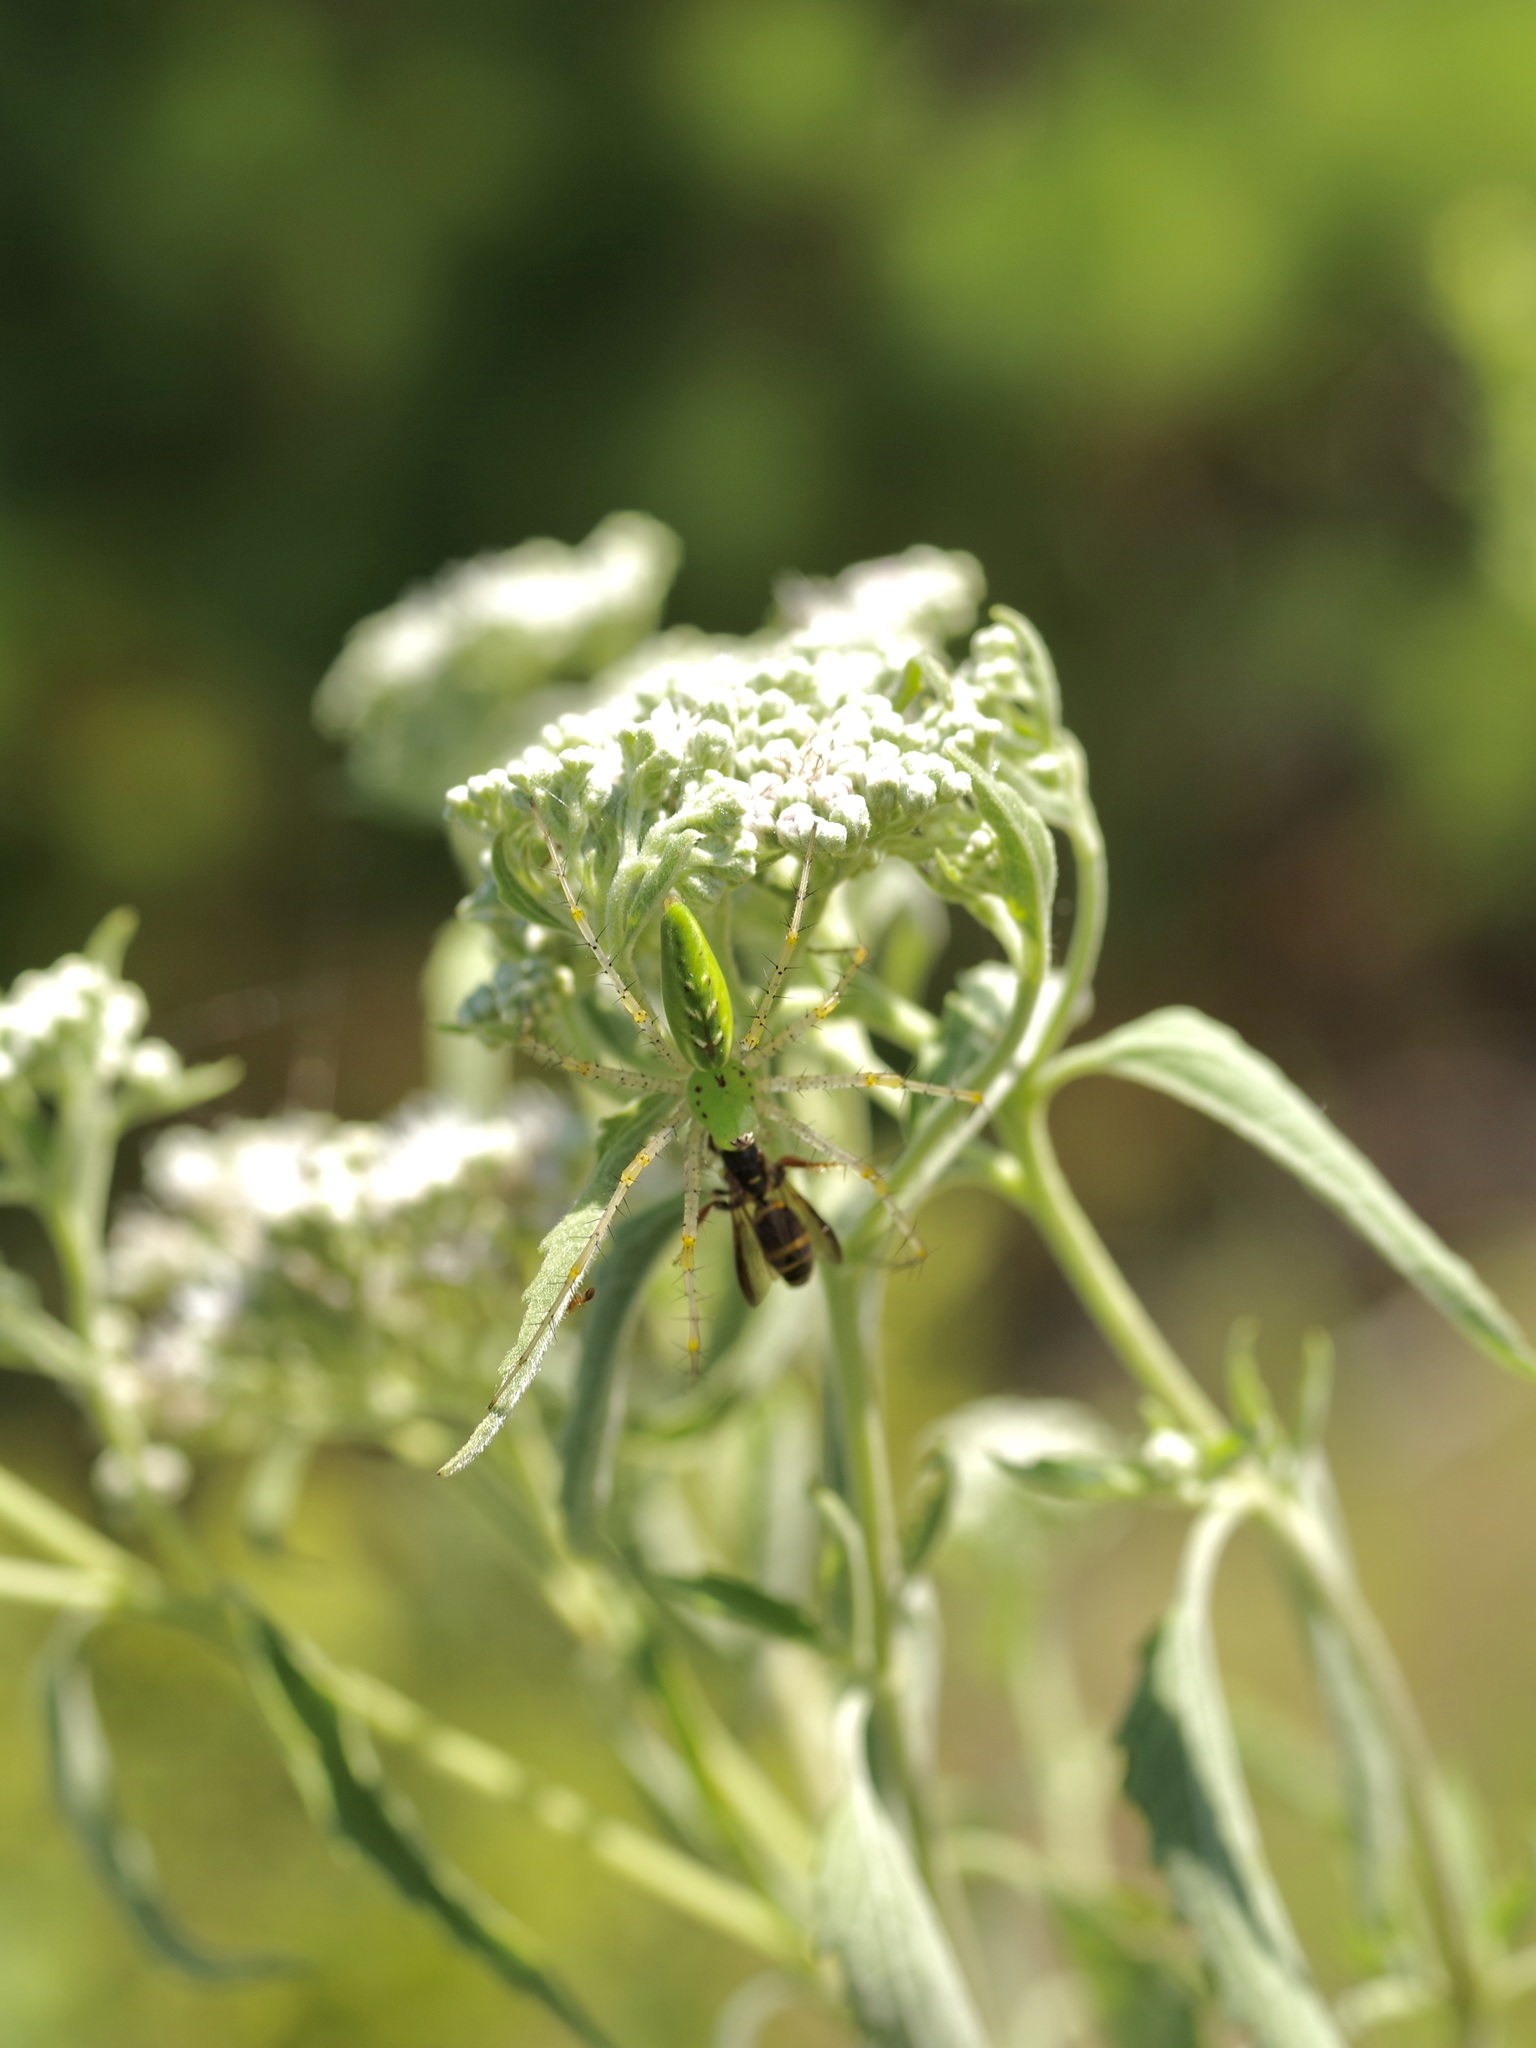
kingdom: Animalia
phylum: Arthropoda
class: Arachnida
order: Araneae
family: Oxyopidae
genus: Peucetia
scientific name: Peucetia viridans
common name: Lynx spiders
